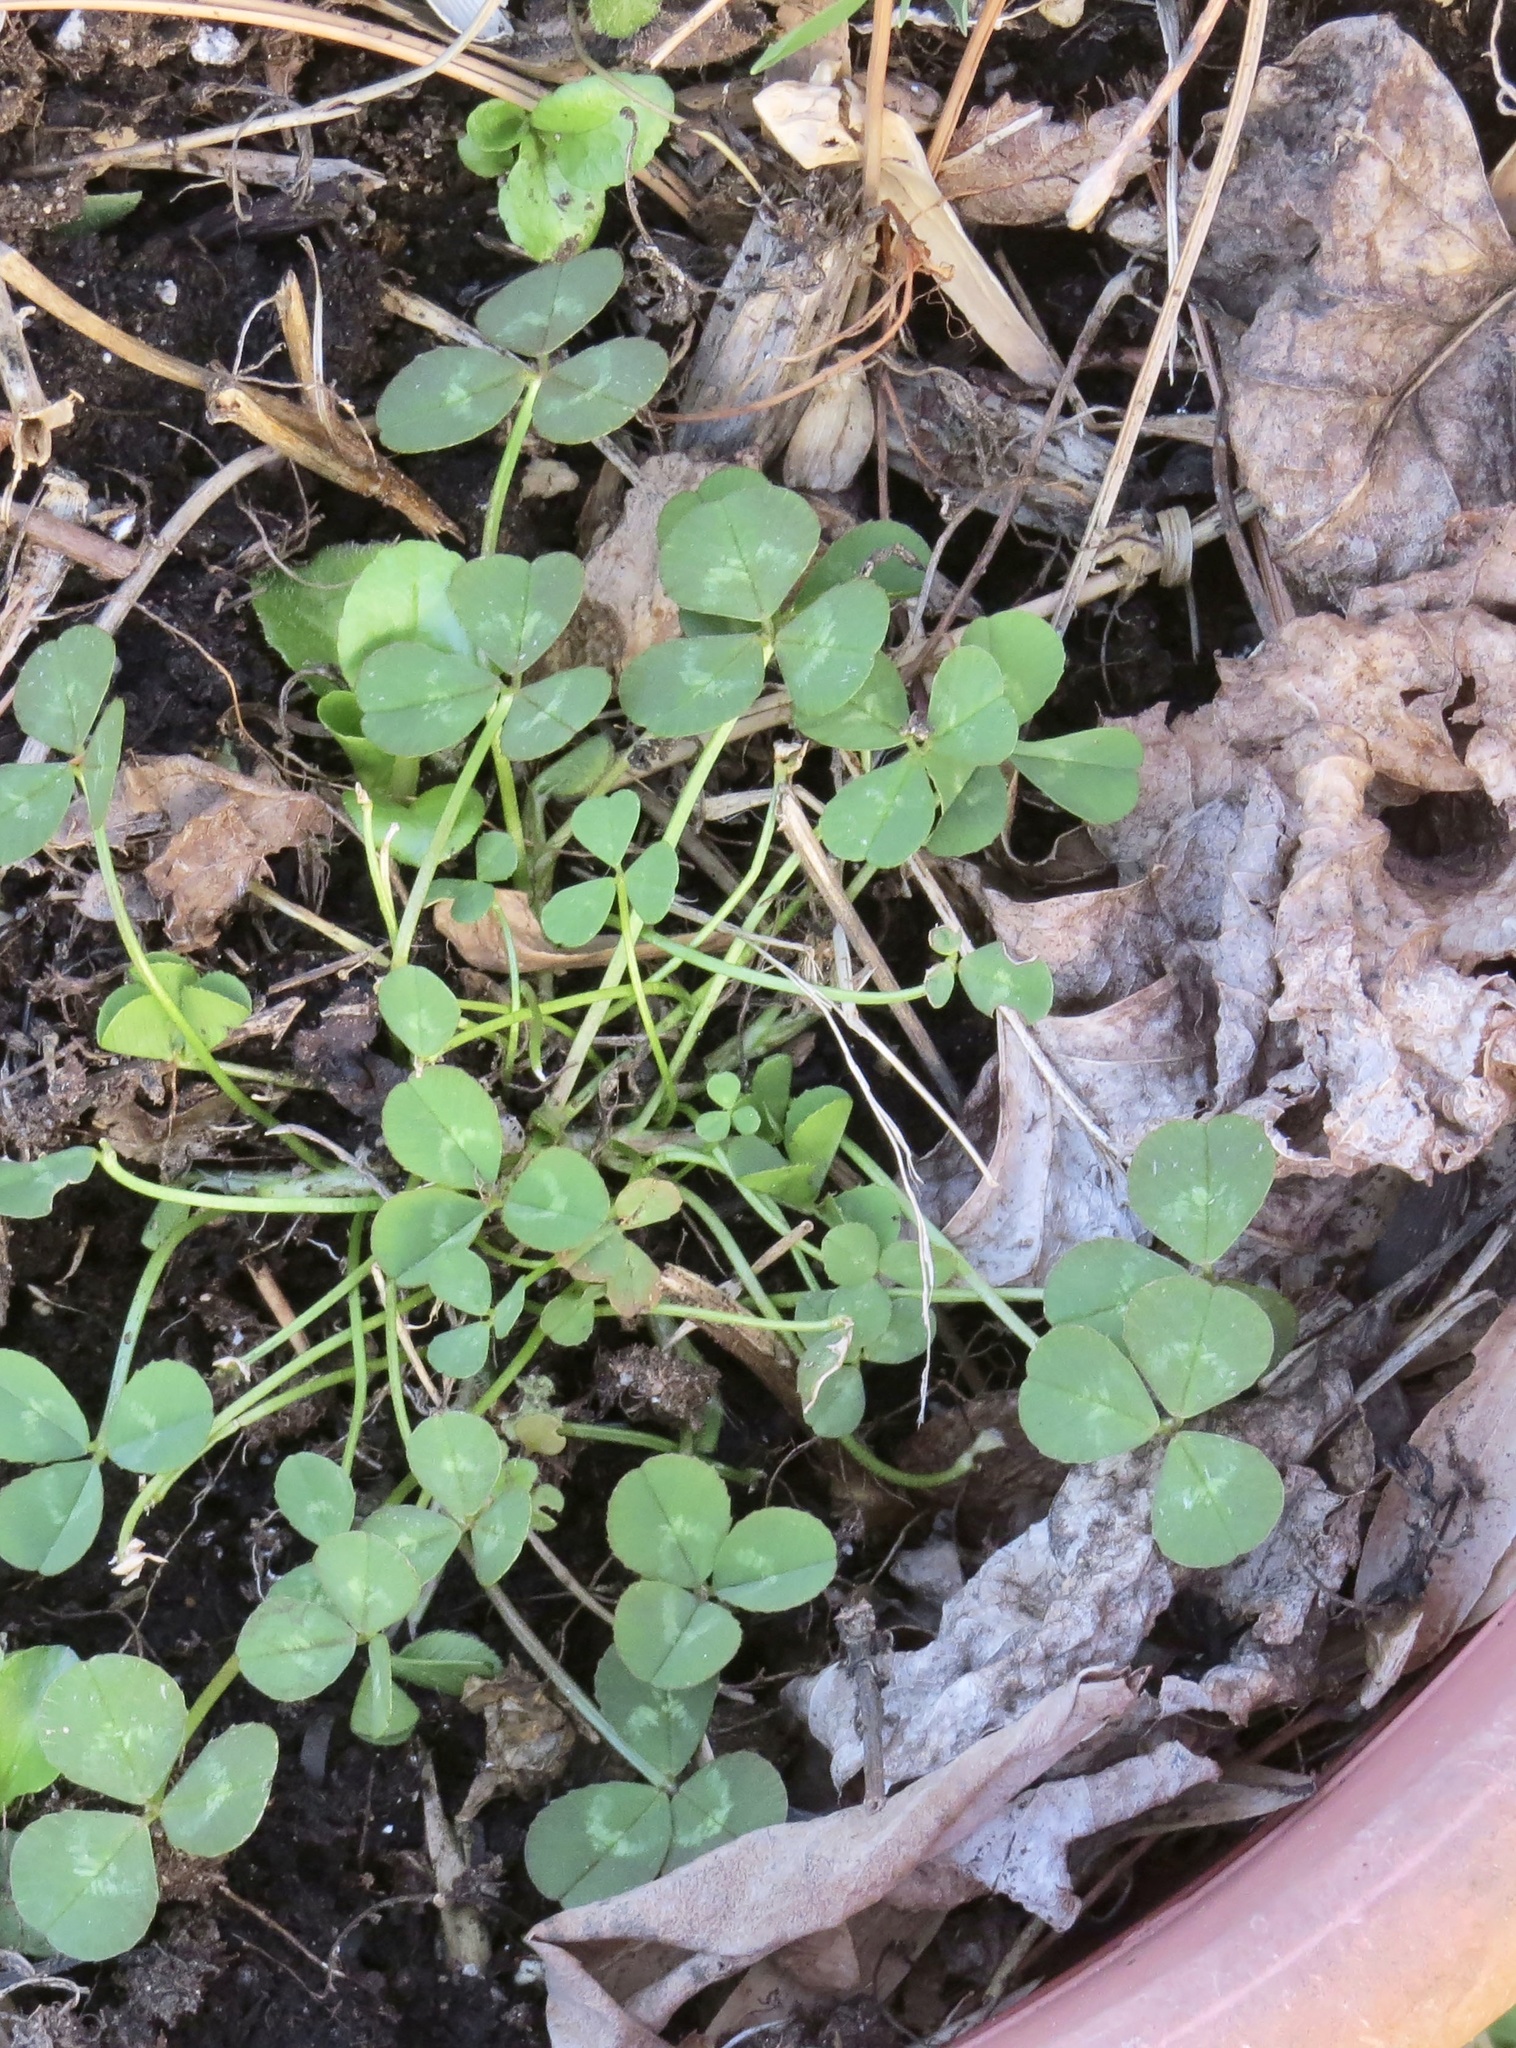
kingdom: Plantae
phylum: Tracheophyta
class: Magnoliopsida
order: Fabales
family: Fabaceae
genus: Trifolium
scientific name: Trifolium repens
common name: White clover
